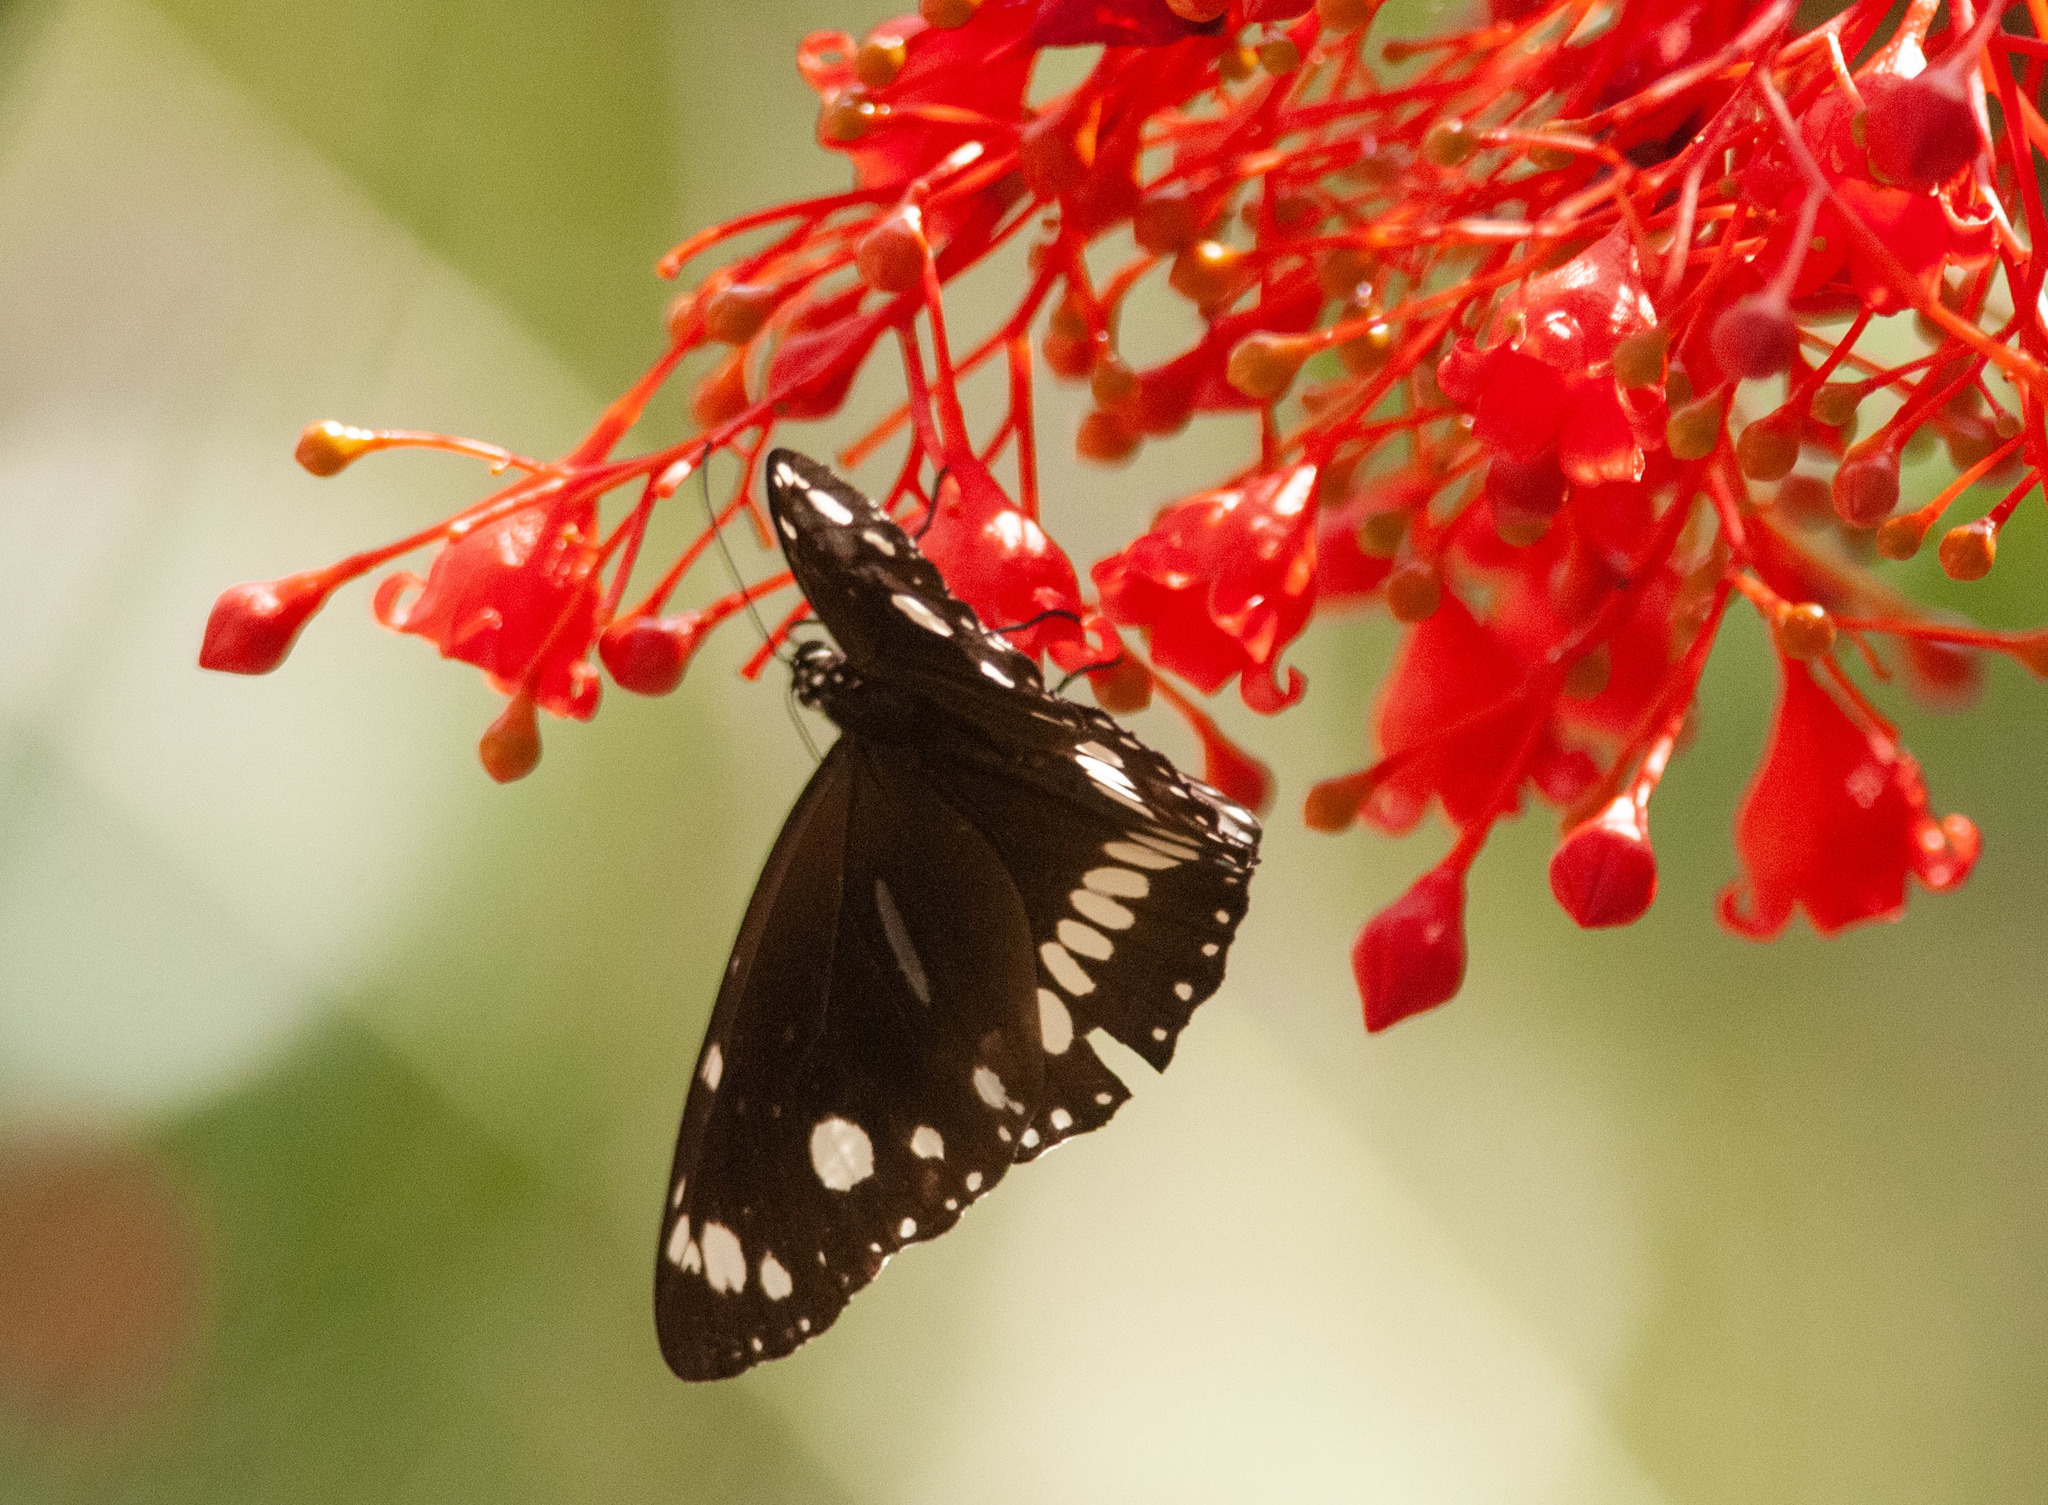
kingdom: Animalia
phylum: Arthropoda
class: Insecta
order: Lepidoptera
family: Nymphalidae
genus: Euploea
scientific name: Euploea core
